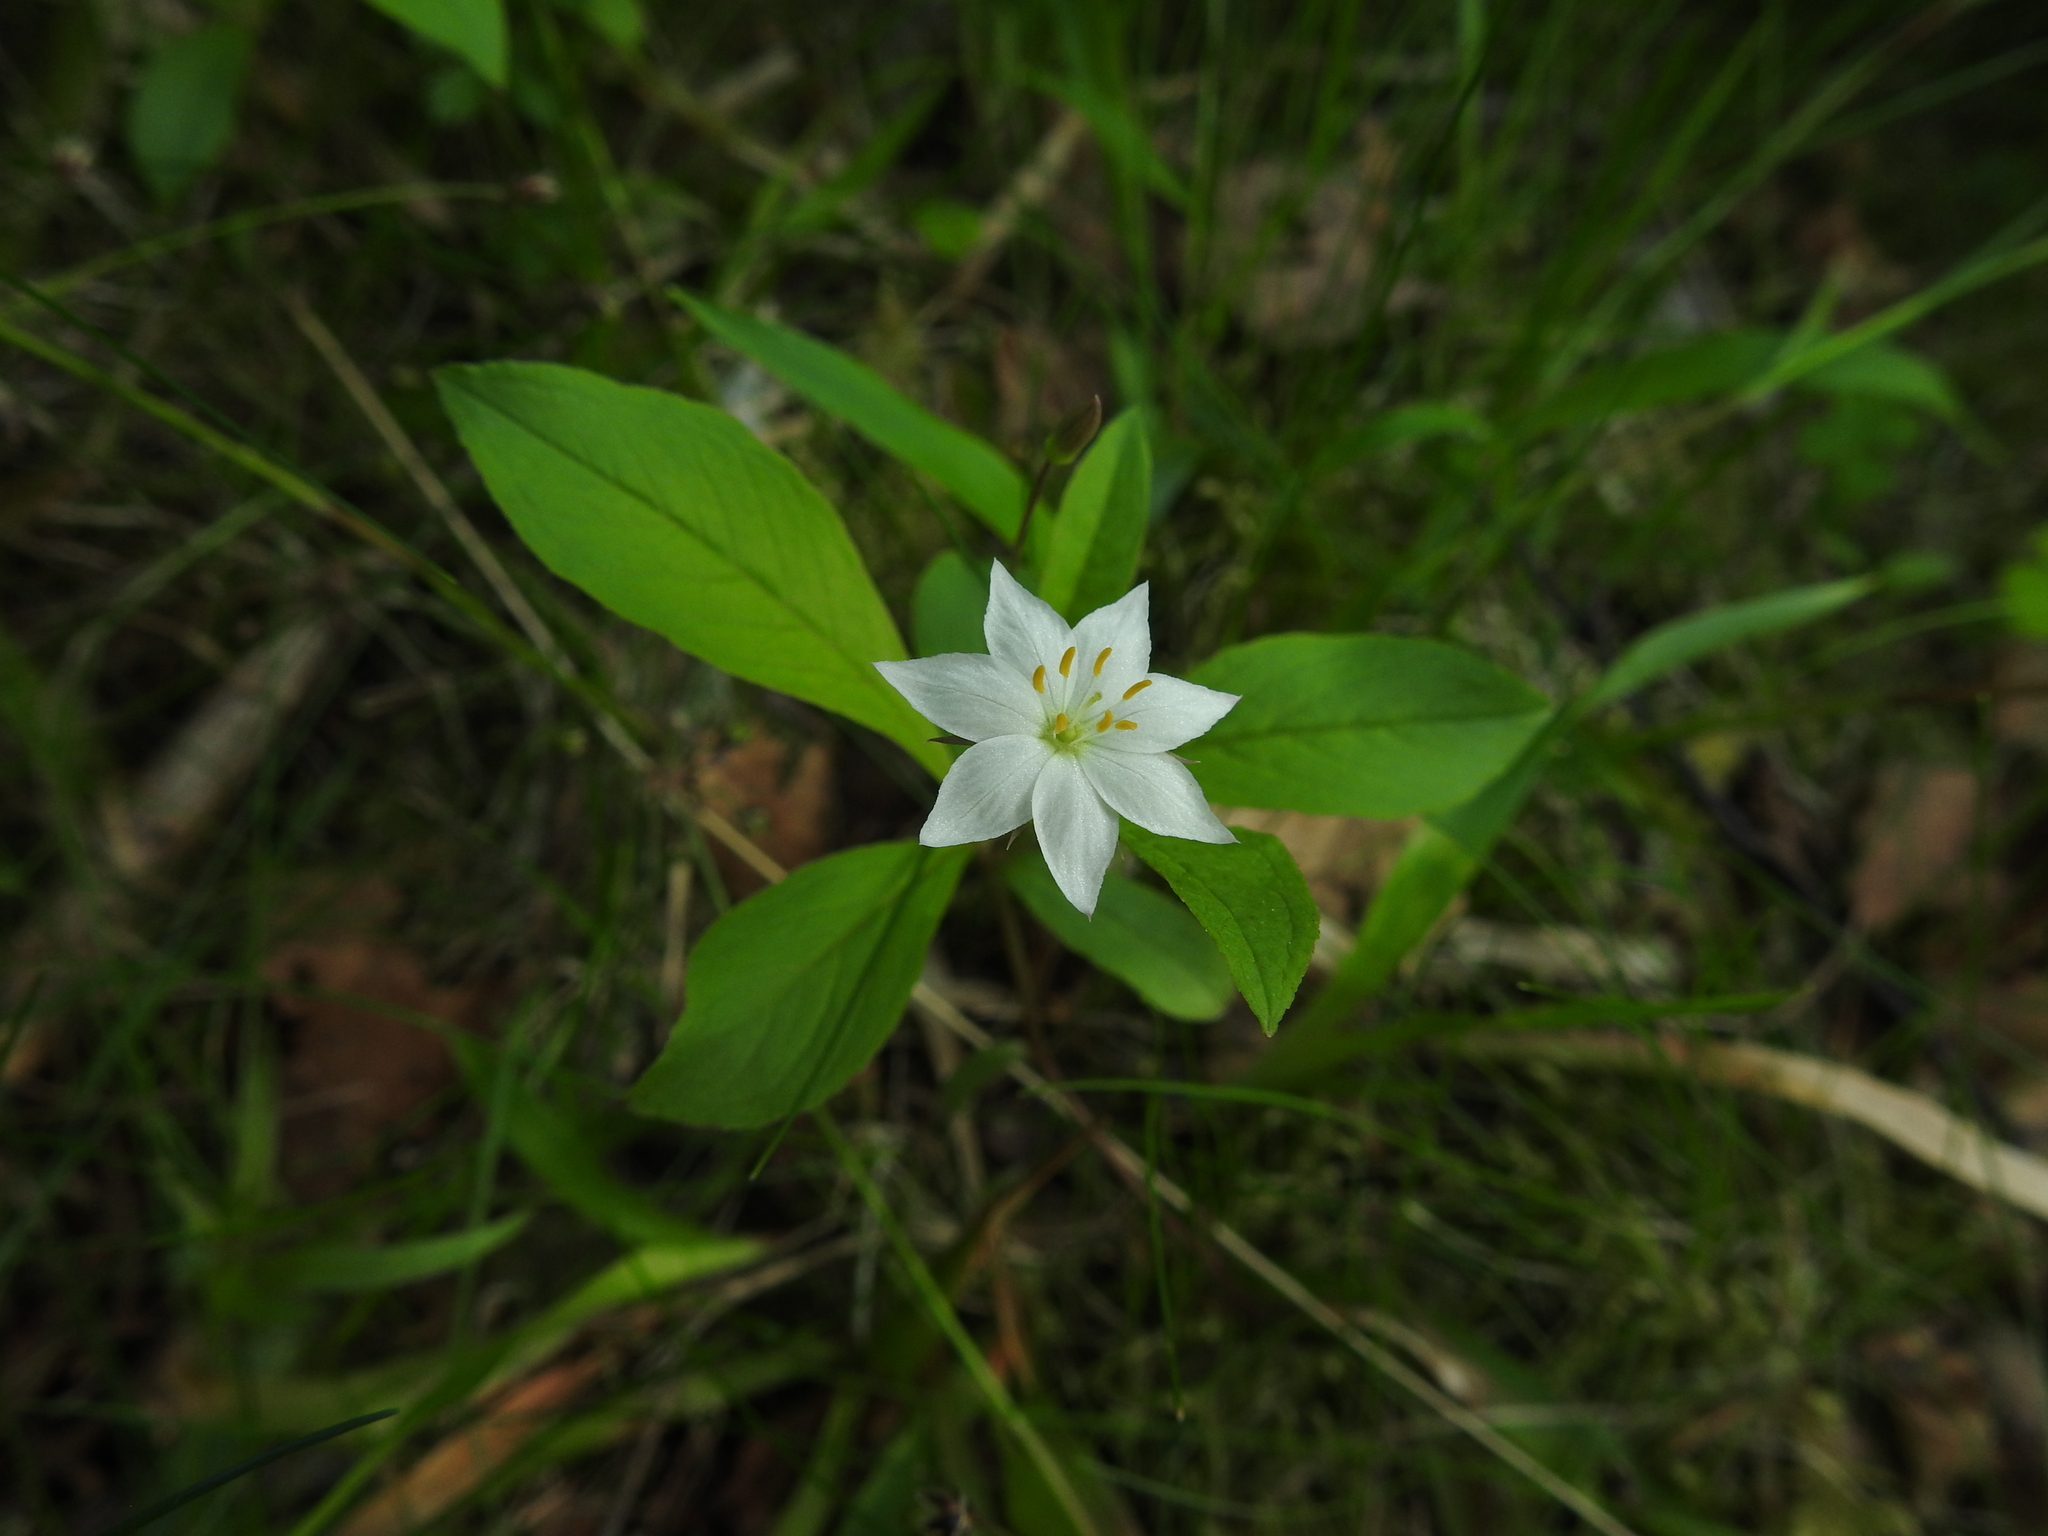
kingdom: Plantae
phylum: Tracheophyta
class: Magnoliopsida
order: Ericales
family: Primulaceae
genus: Lysimachia
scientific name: Lysimachia europaea
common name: Arctic starflower
